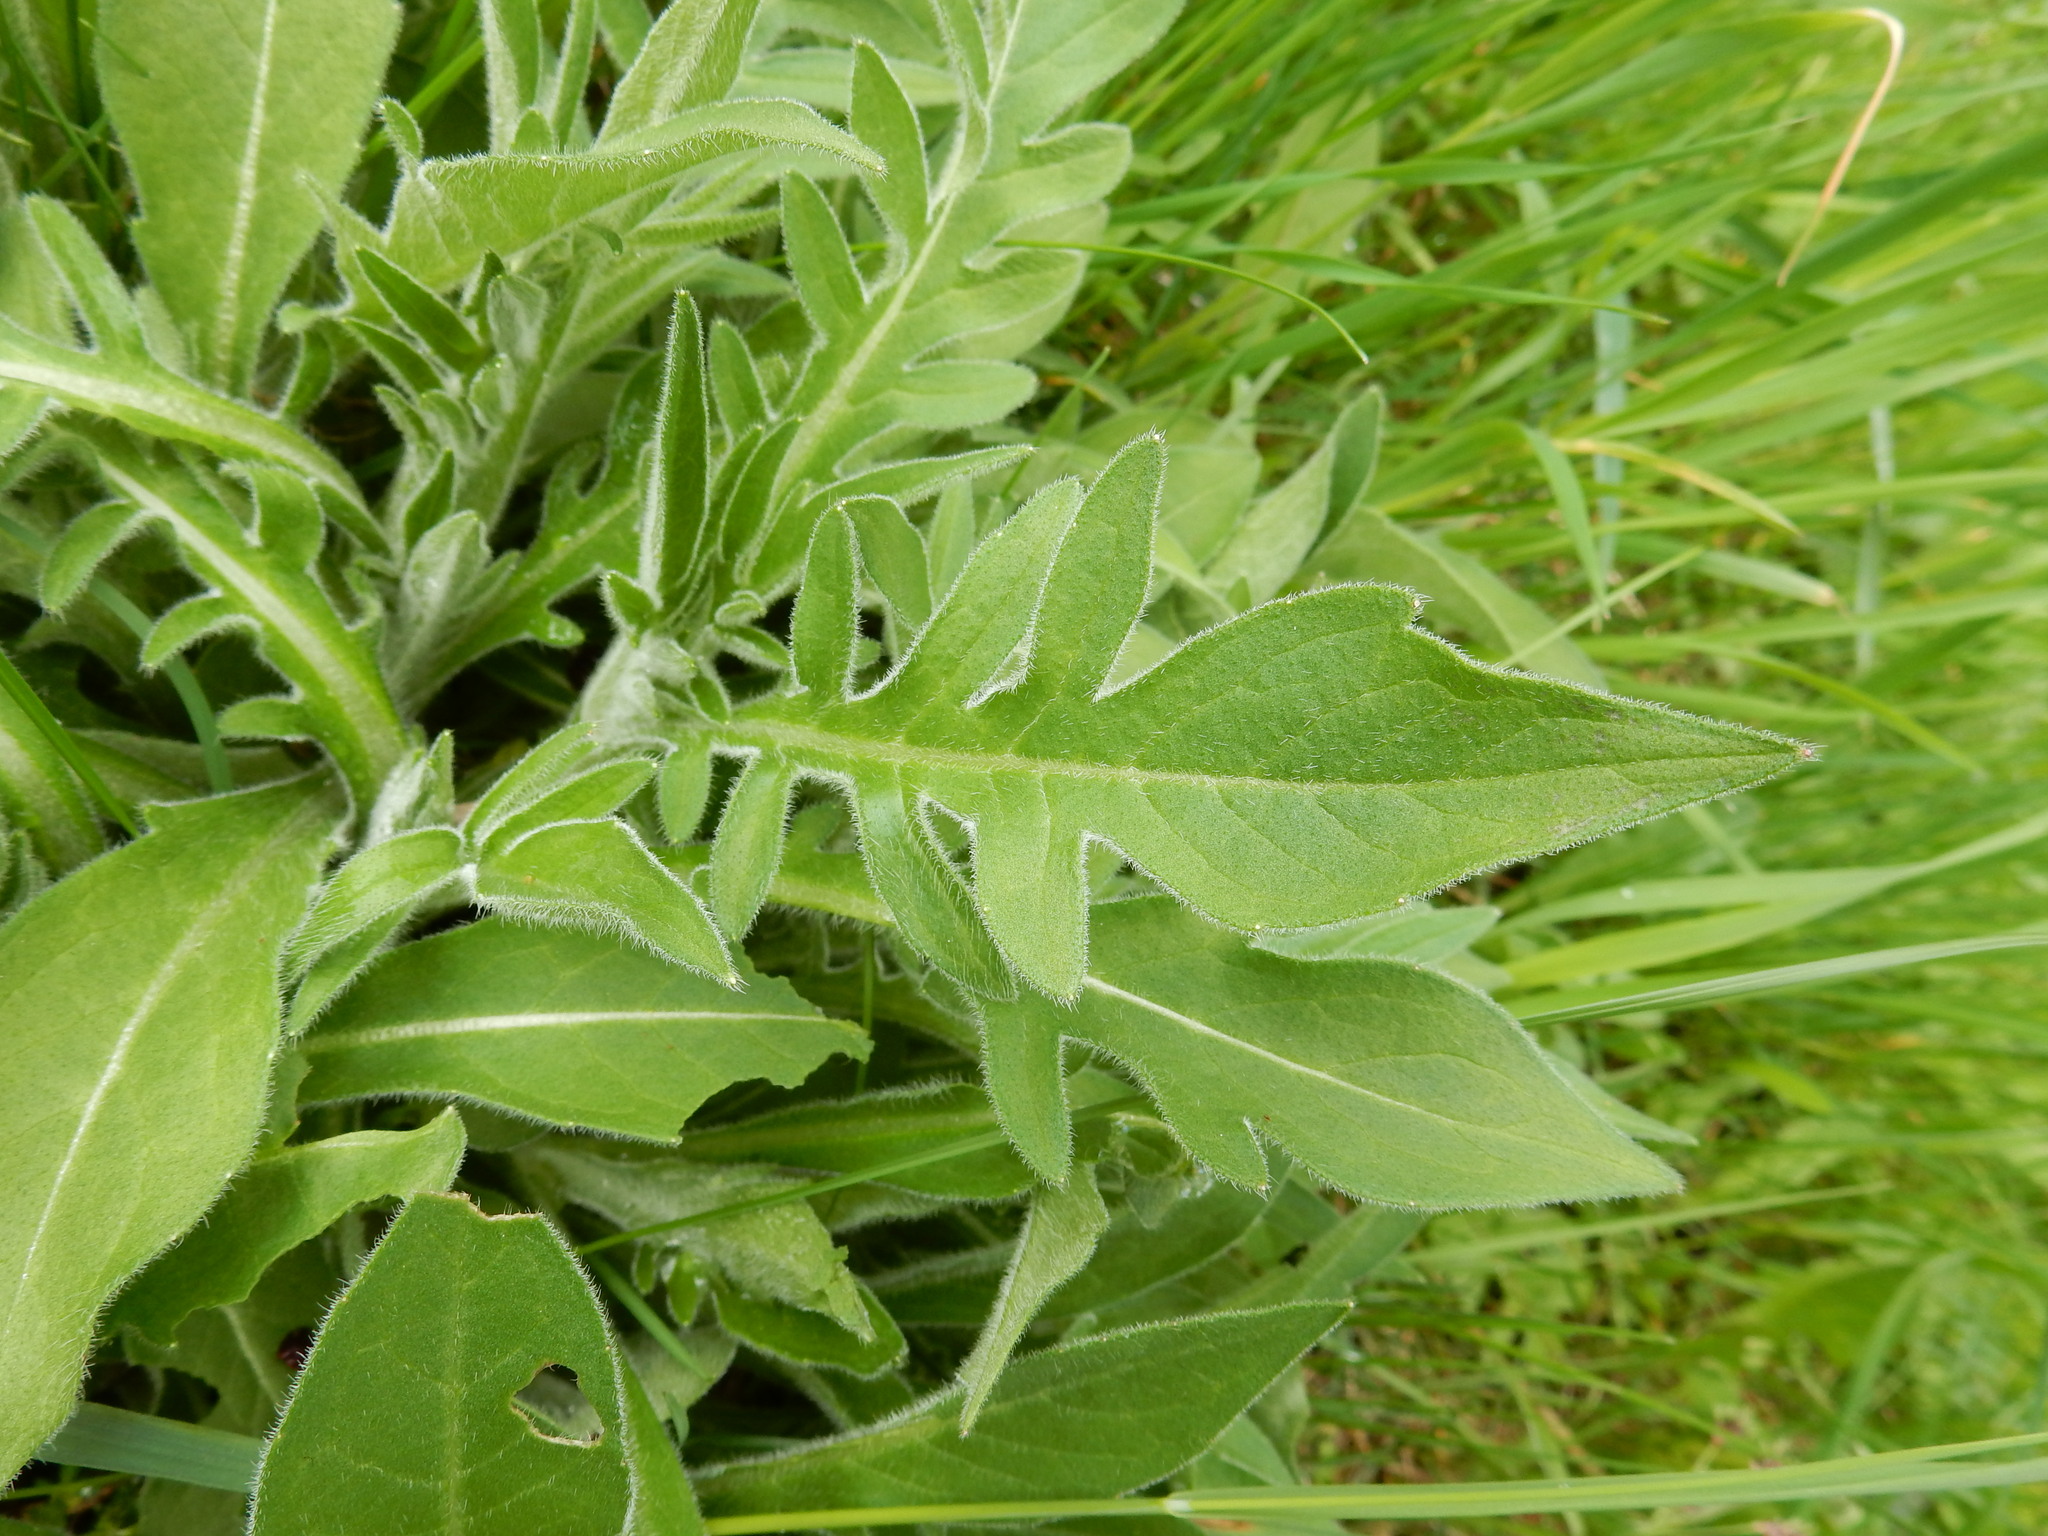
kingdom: Plantae
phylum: Tracheophyta
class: Magnoliopsida
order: Dipsacales
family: Caprifoliaceae
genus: Knautia
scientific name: Knautia arvensis
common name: Field scabiosa
